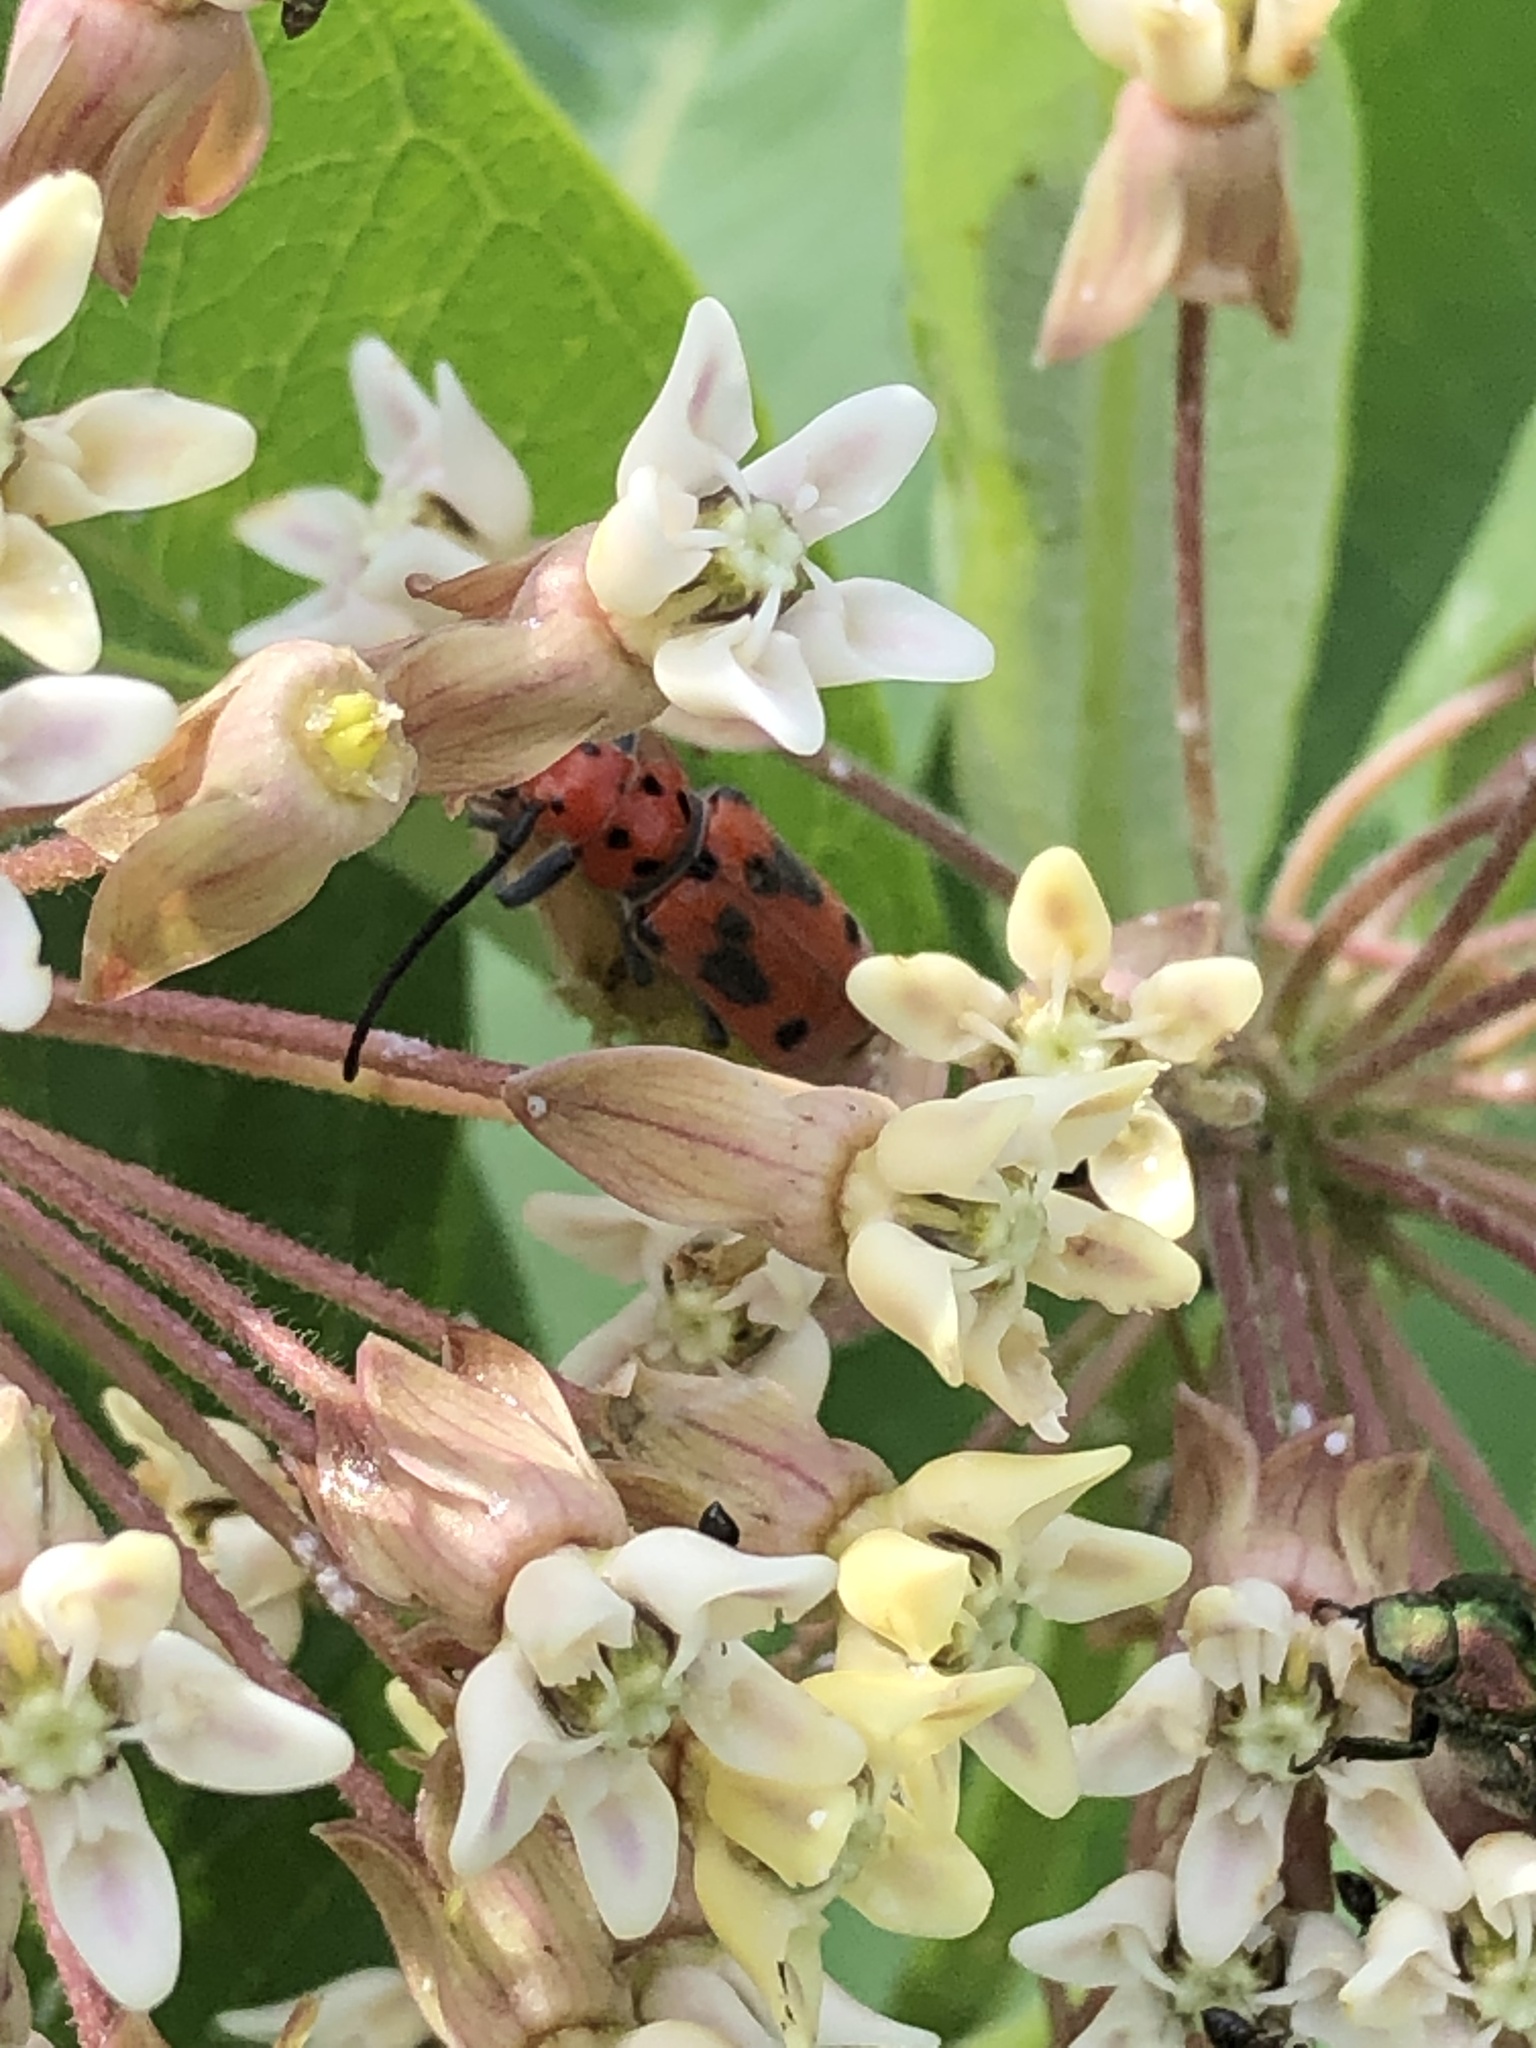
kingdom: Animalia
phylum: Arthropoda
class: Insecta
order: Coleoptera
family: Cerambycidae
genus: Tetraopes
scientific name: Tetraopes tetrophthalmus
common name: Red milkweed beetle
